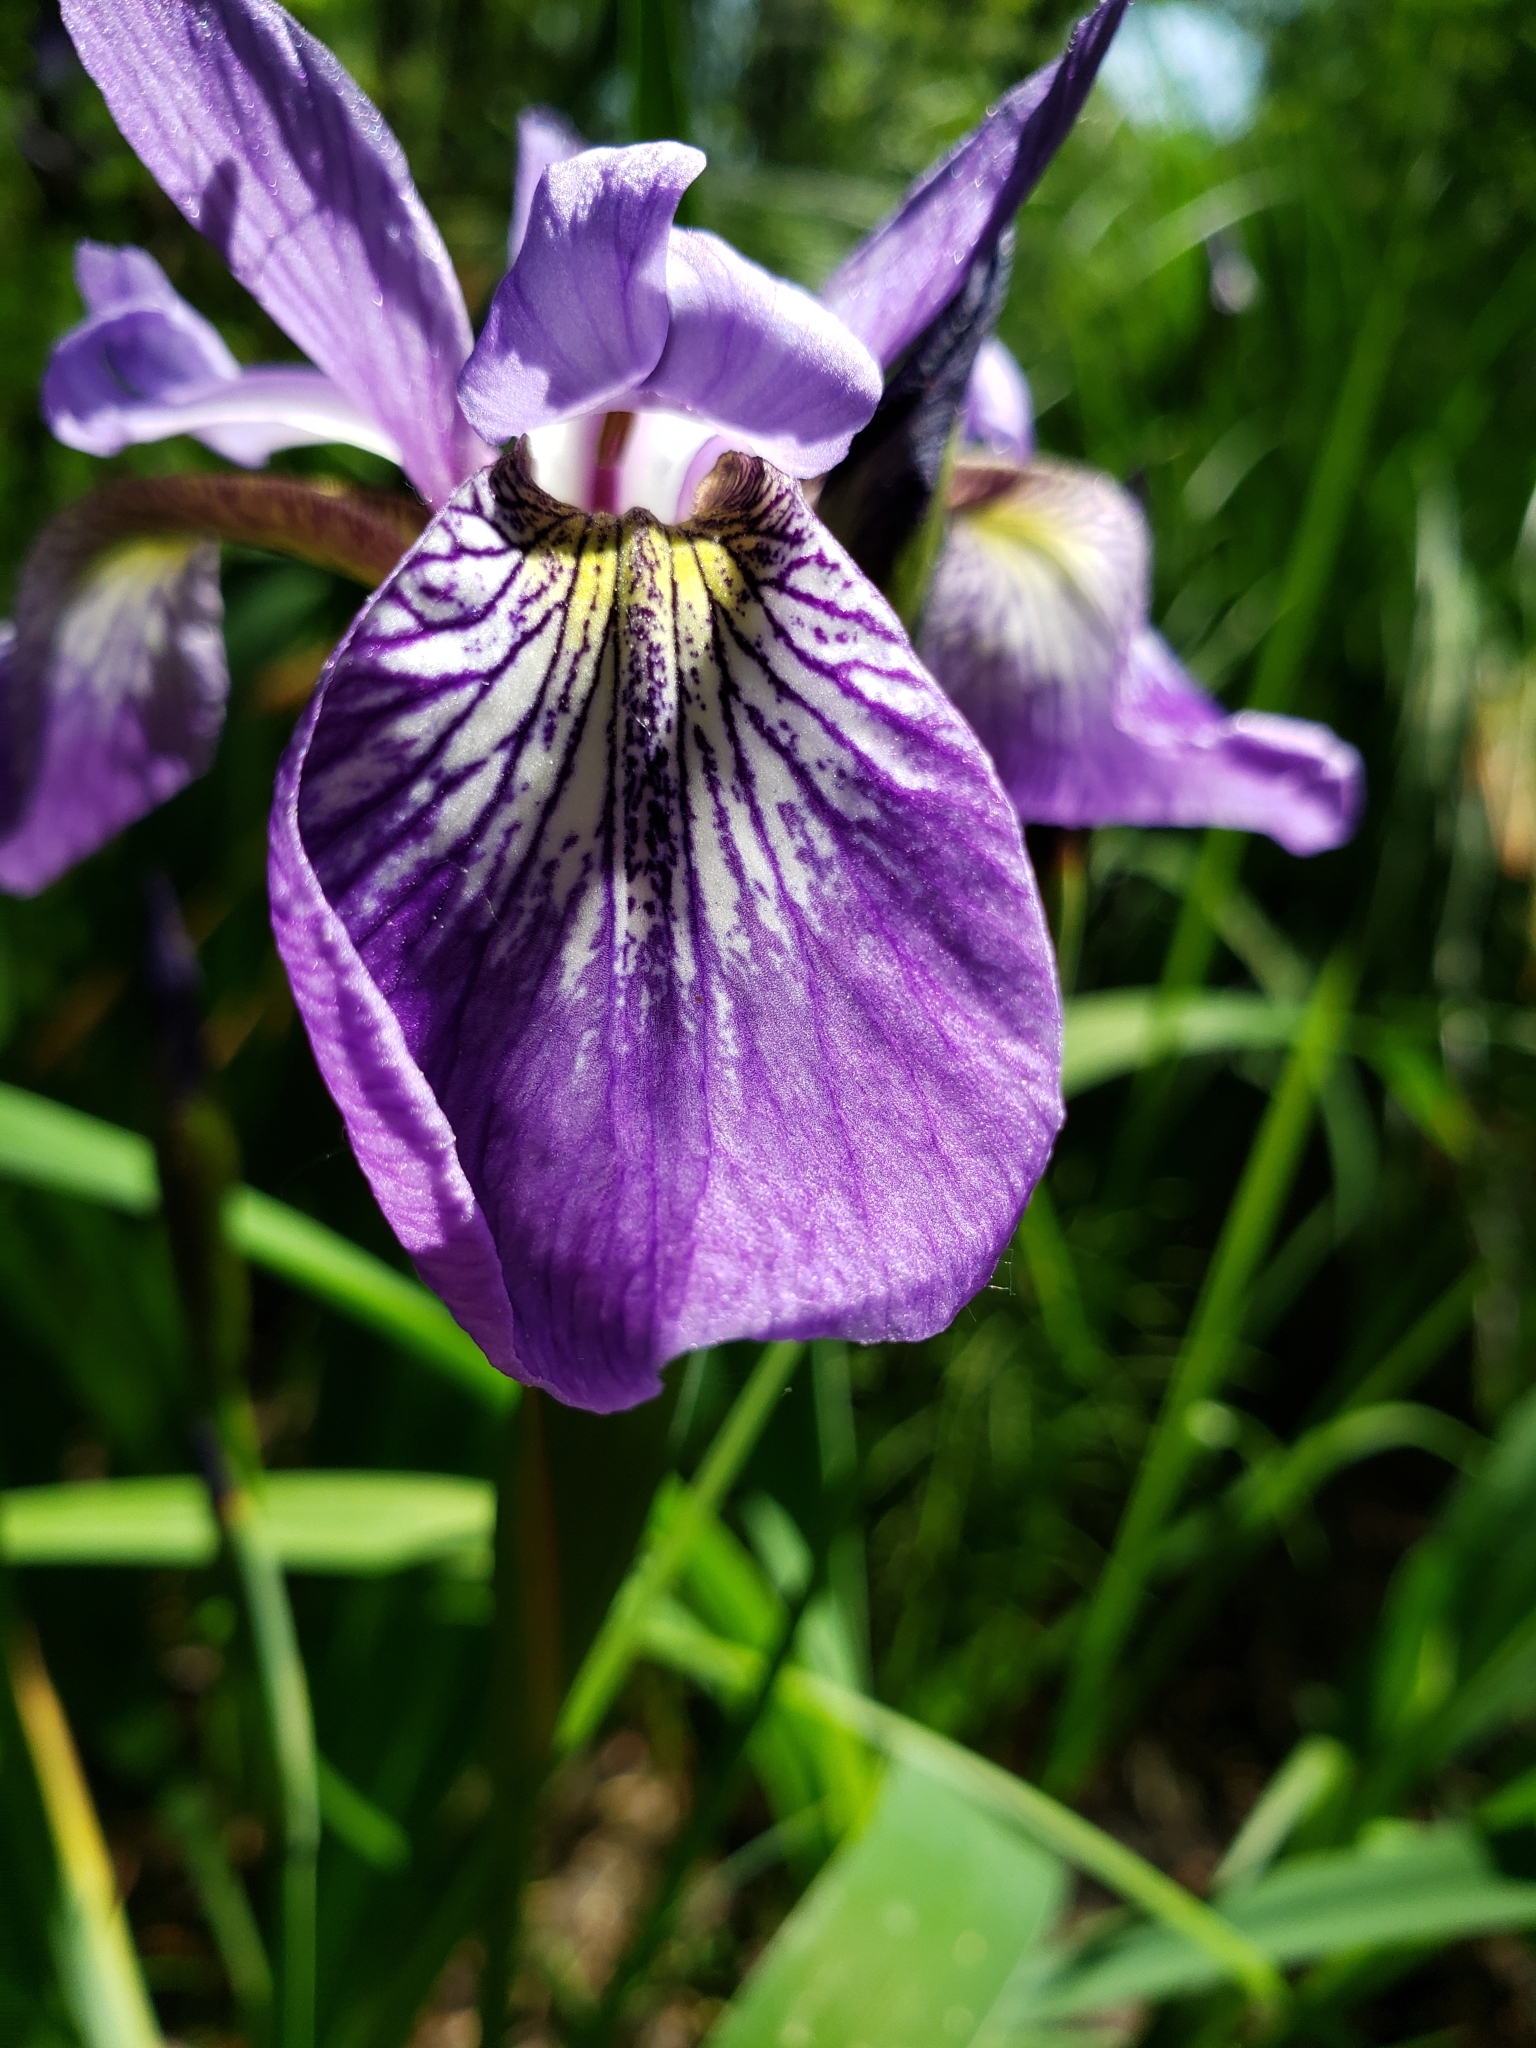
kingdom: Plantae
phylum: Tracheophyta
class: Liliopsida
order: Asparagales
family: Iridaceae
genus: Iris
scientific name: Iris versicolor
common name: Purple iris
